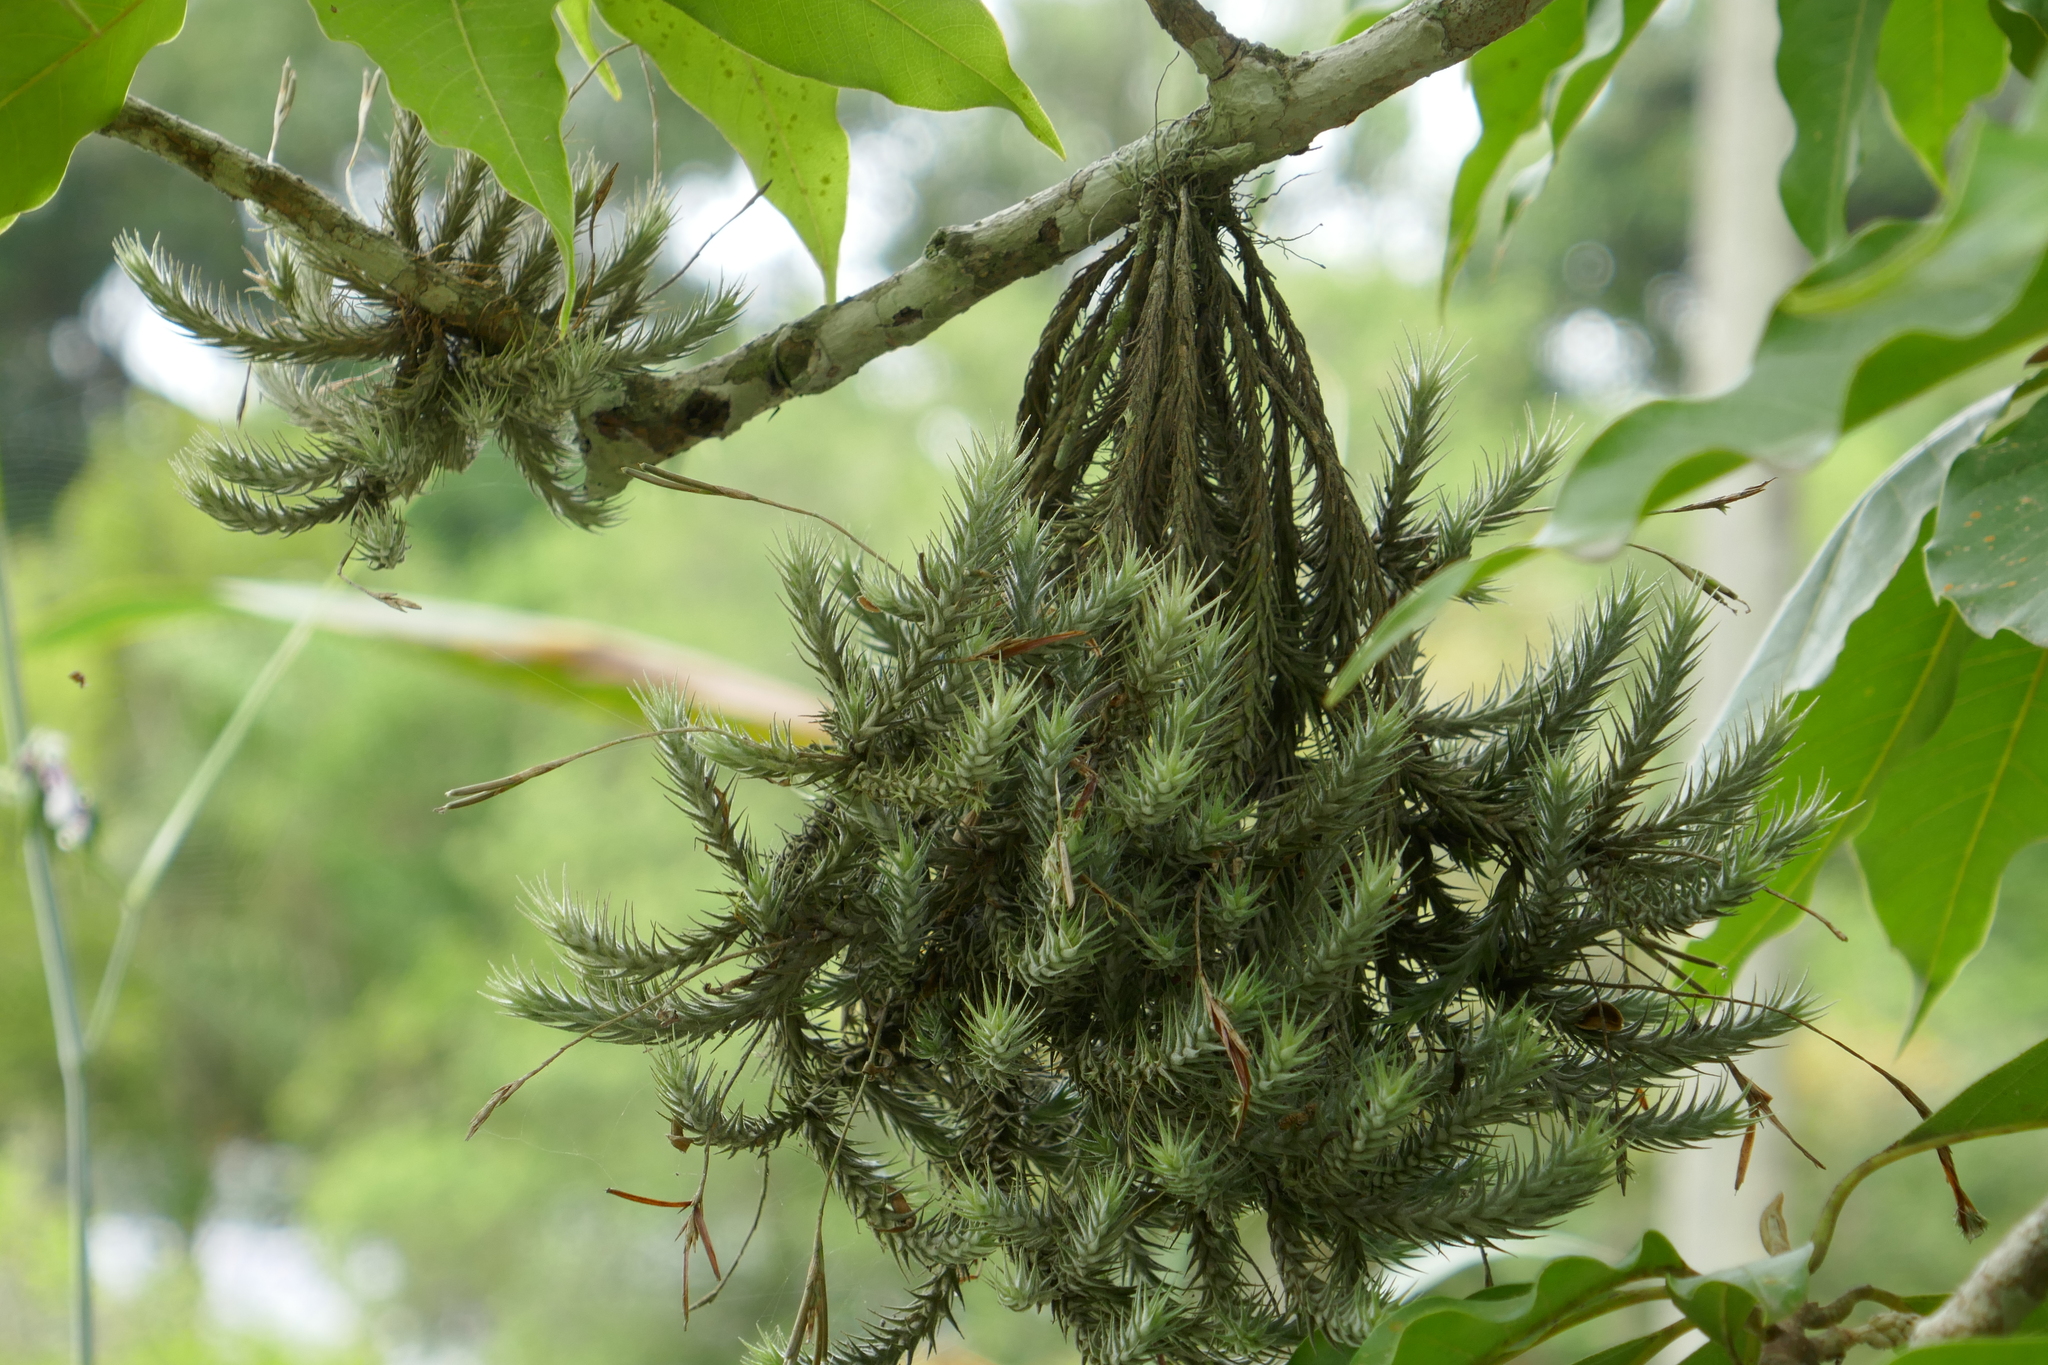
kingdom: Plantae
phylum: Tracheophyta
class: Liliopsida
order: Poales
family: Bromeliaceae
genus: Tillandsia
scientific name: Tillandsia tricholepis
